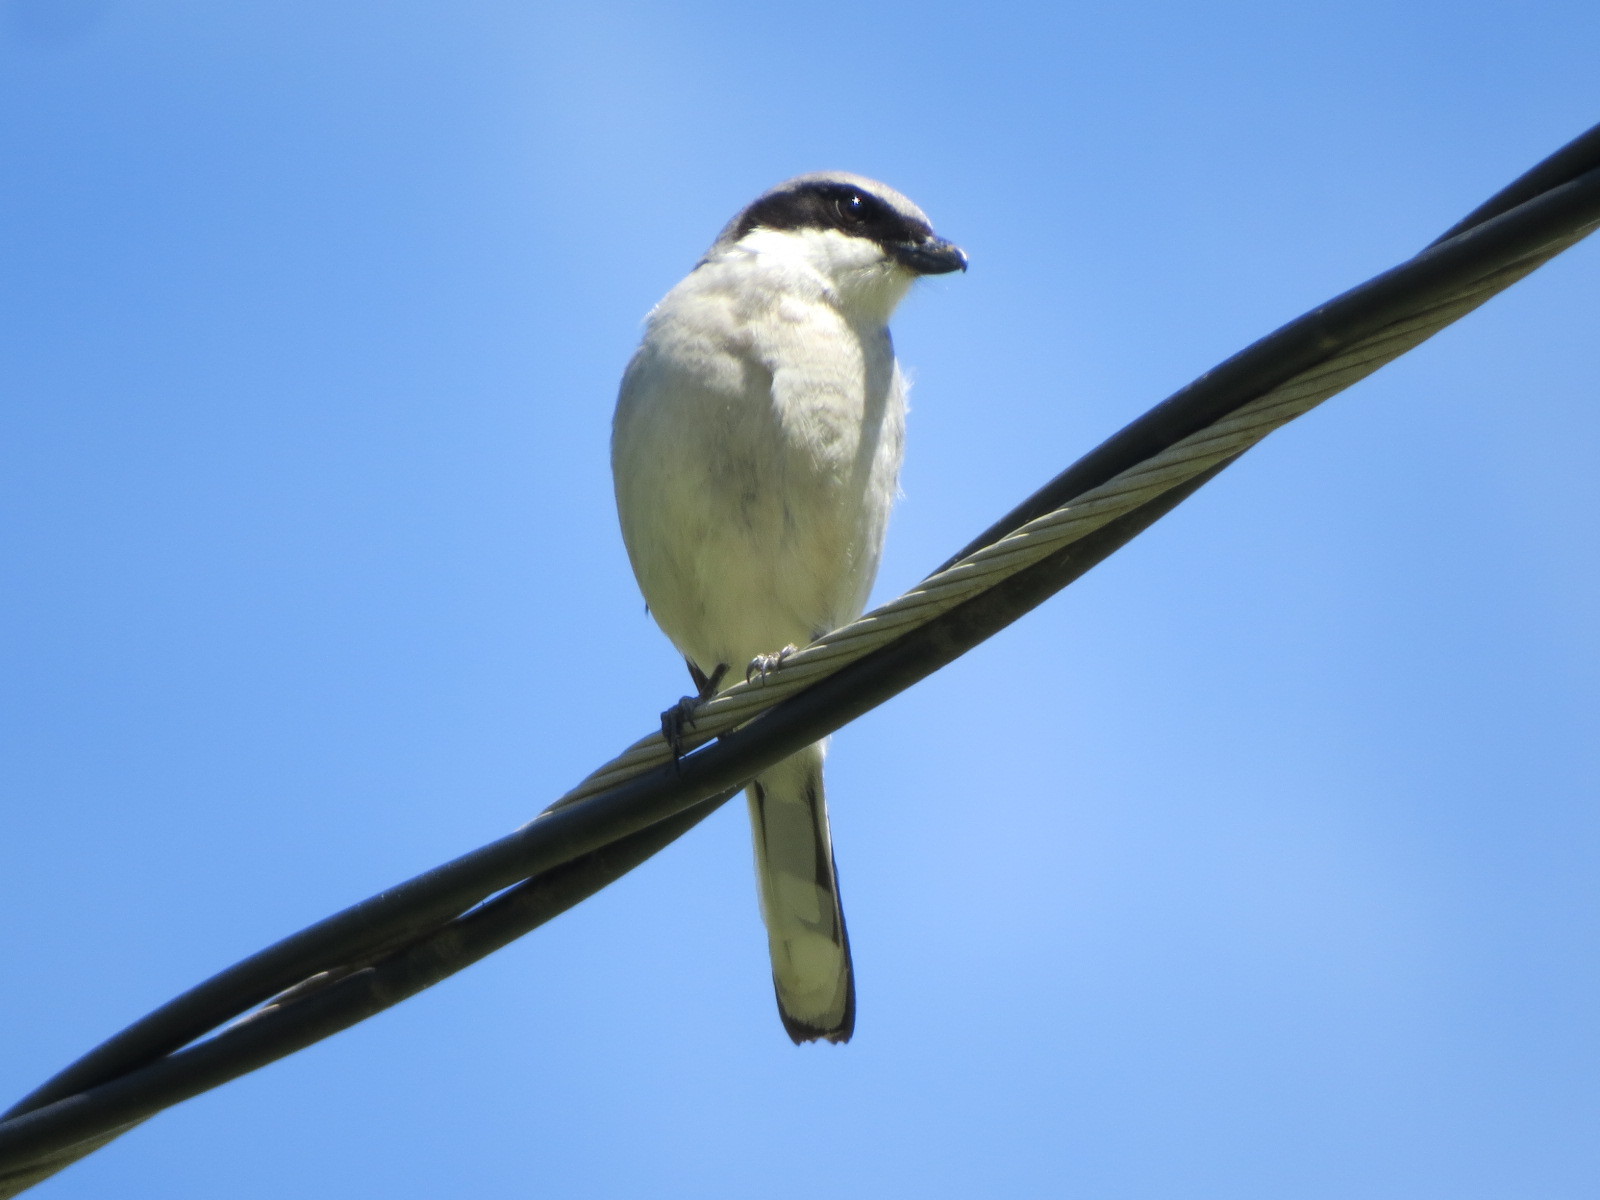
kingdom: Animalia
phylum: Chordata
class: Aves
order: Passeriformes
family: Laniidae
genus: Lanius
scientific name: Lanius ludovicianus
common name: Loggerhead shrike
